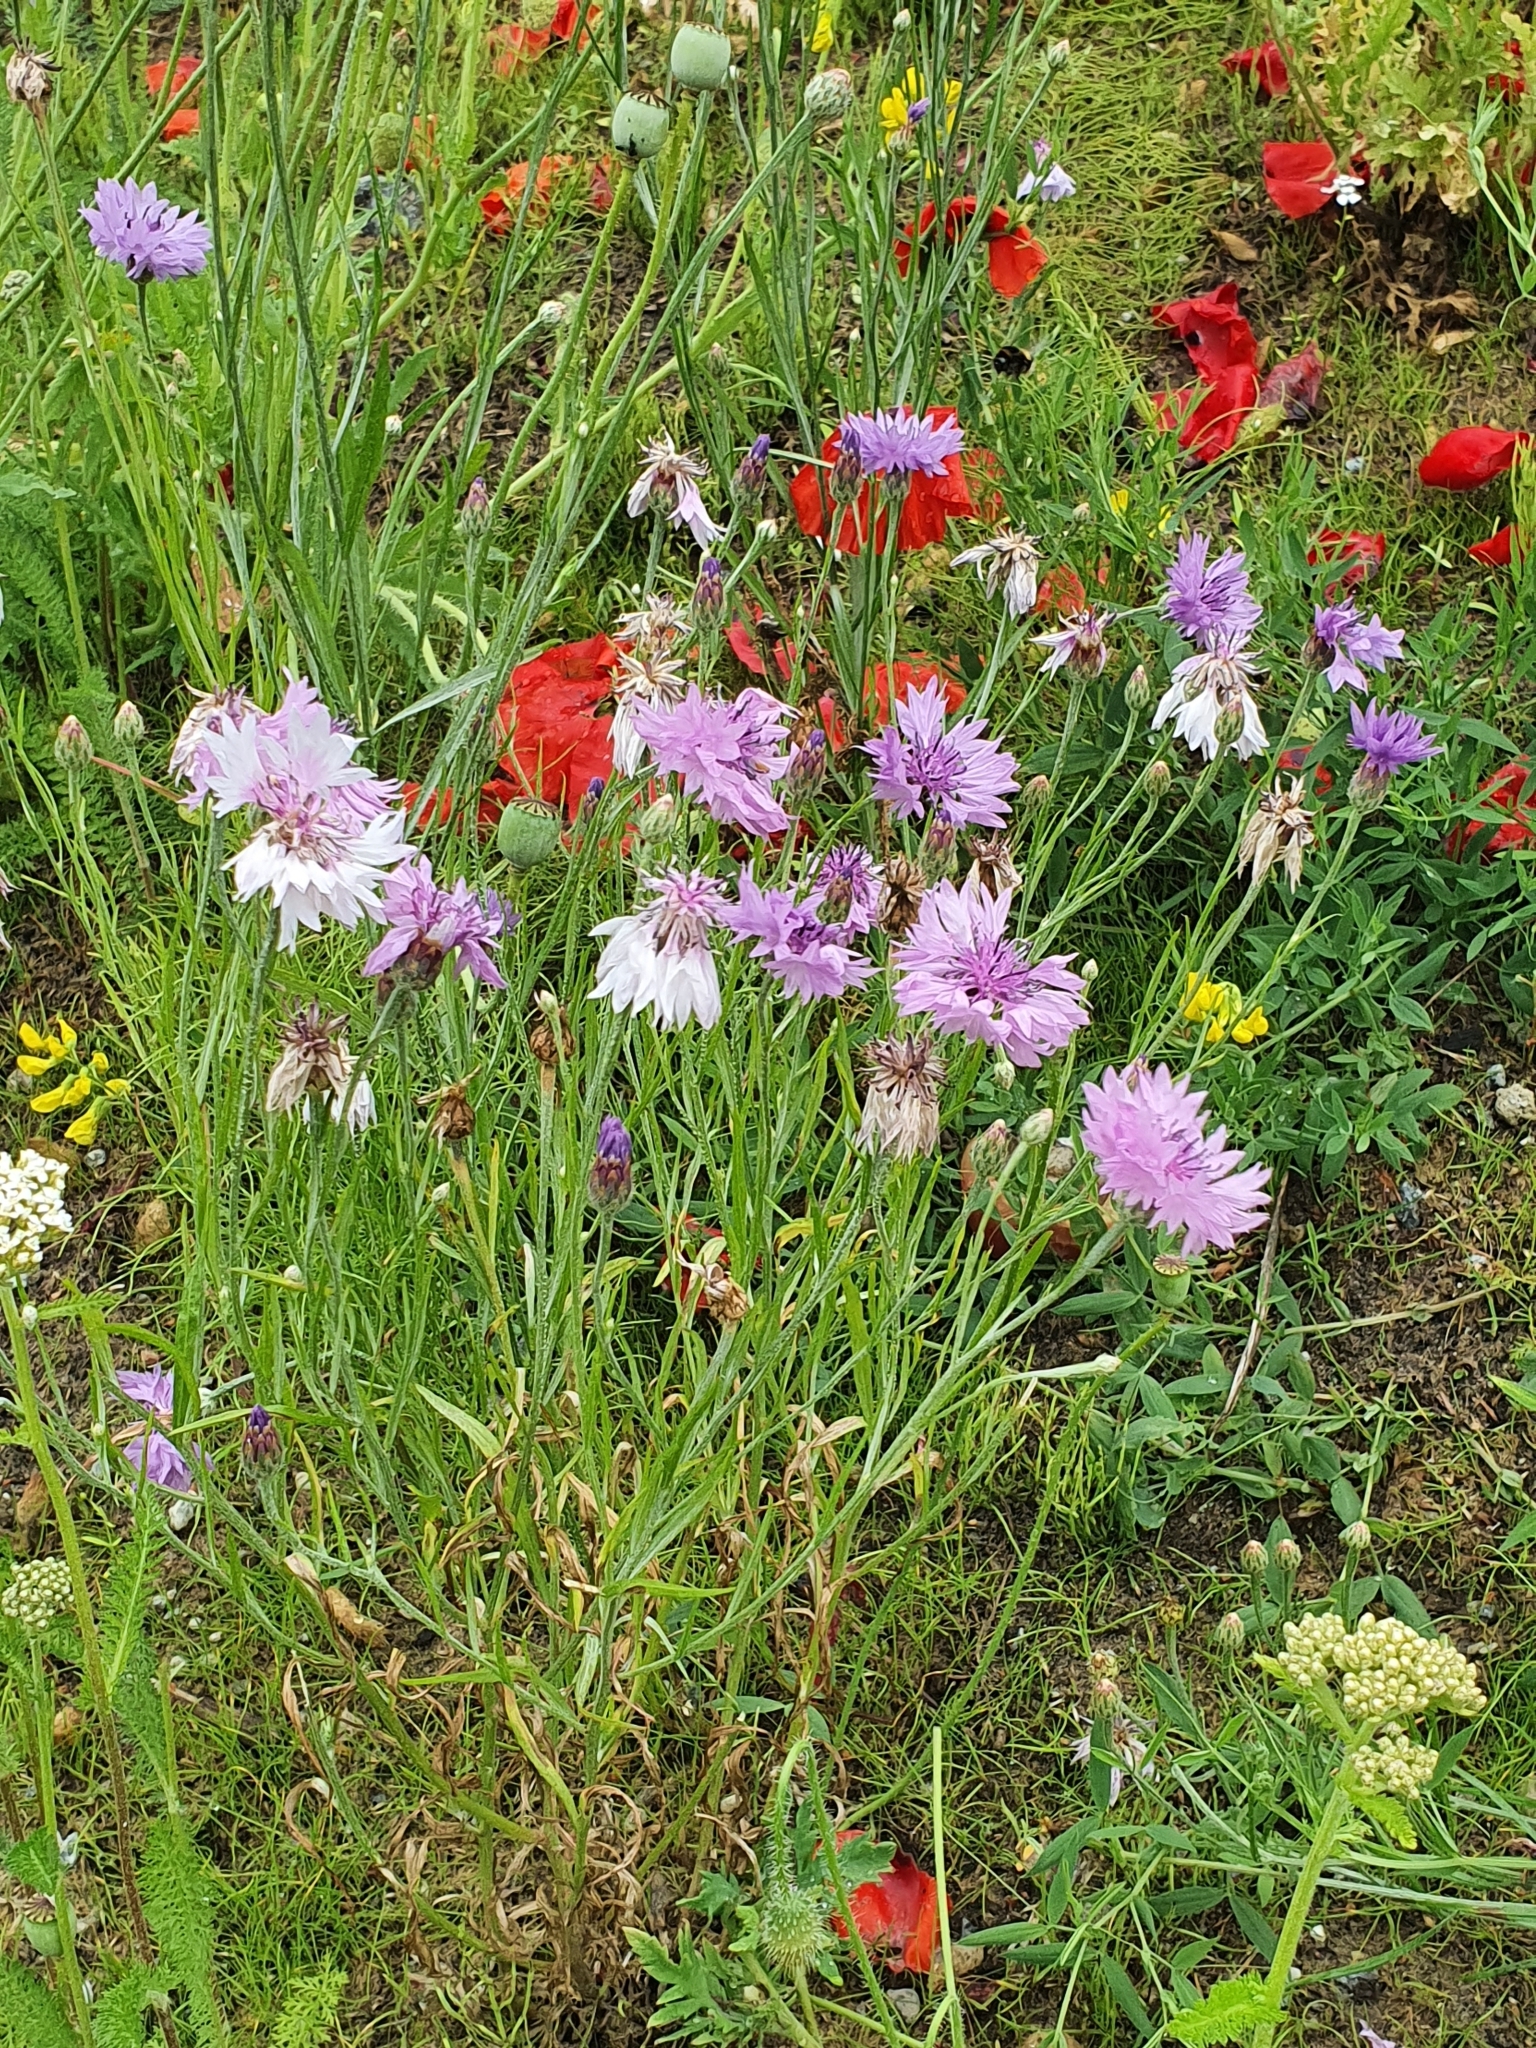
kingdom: Plantae
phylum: Tracheophyta
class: Magnoliopsida
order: Asterales
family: Asteraceae
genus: Centaurea
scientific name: Centaurea cyanus
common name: Cornflower
